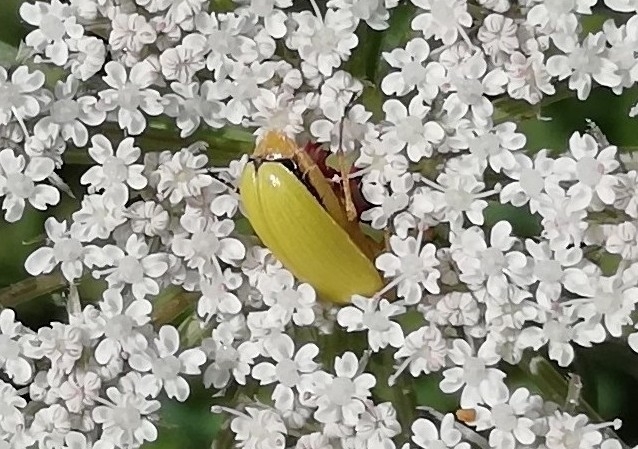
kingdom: Animalia
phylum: Arthropoda
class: Insecta
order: Coleoptera
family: Tenebrionidae
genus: Cteniopus
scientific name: Cteniopus sulphureus
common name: Sulphur beetle
